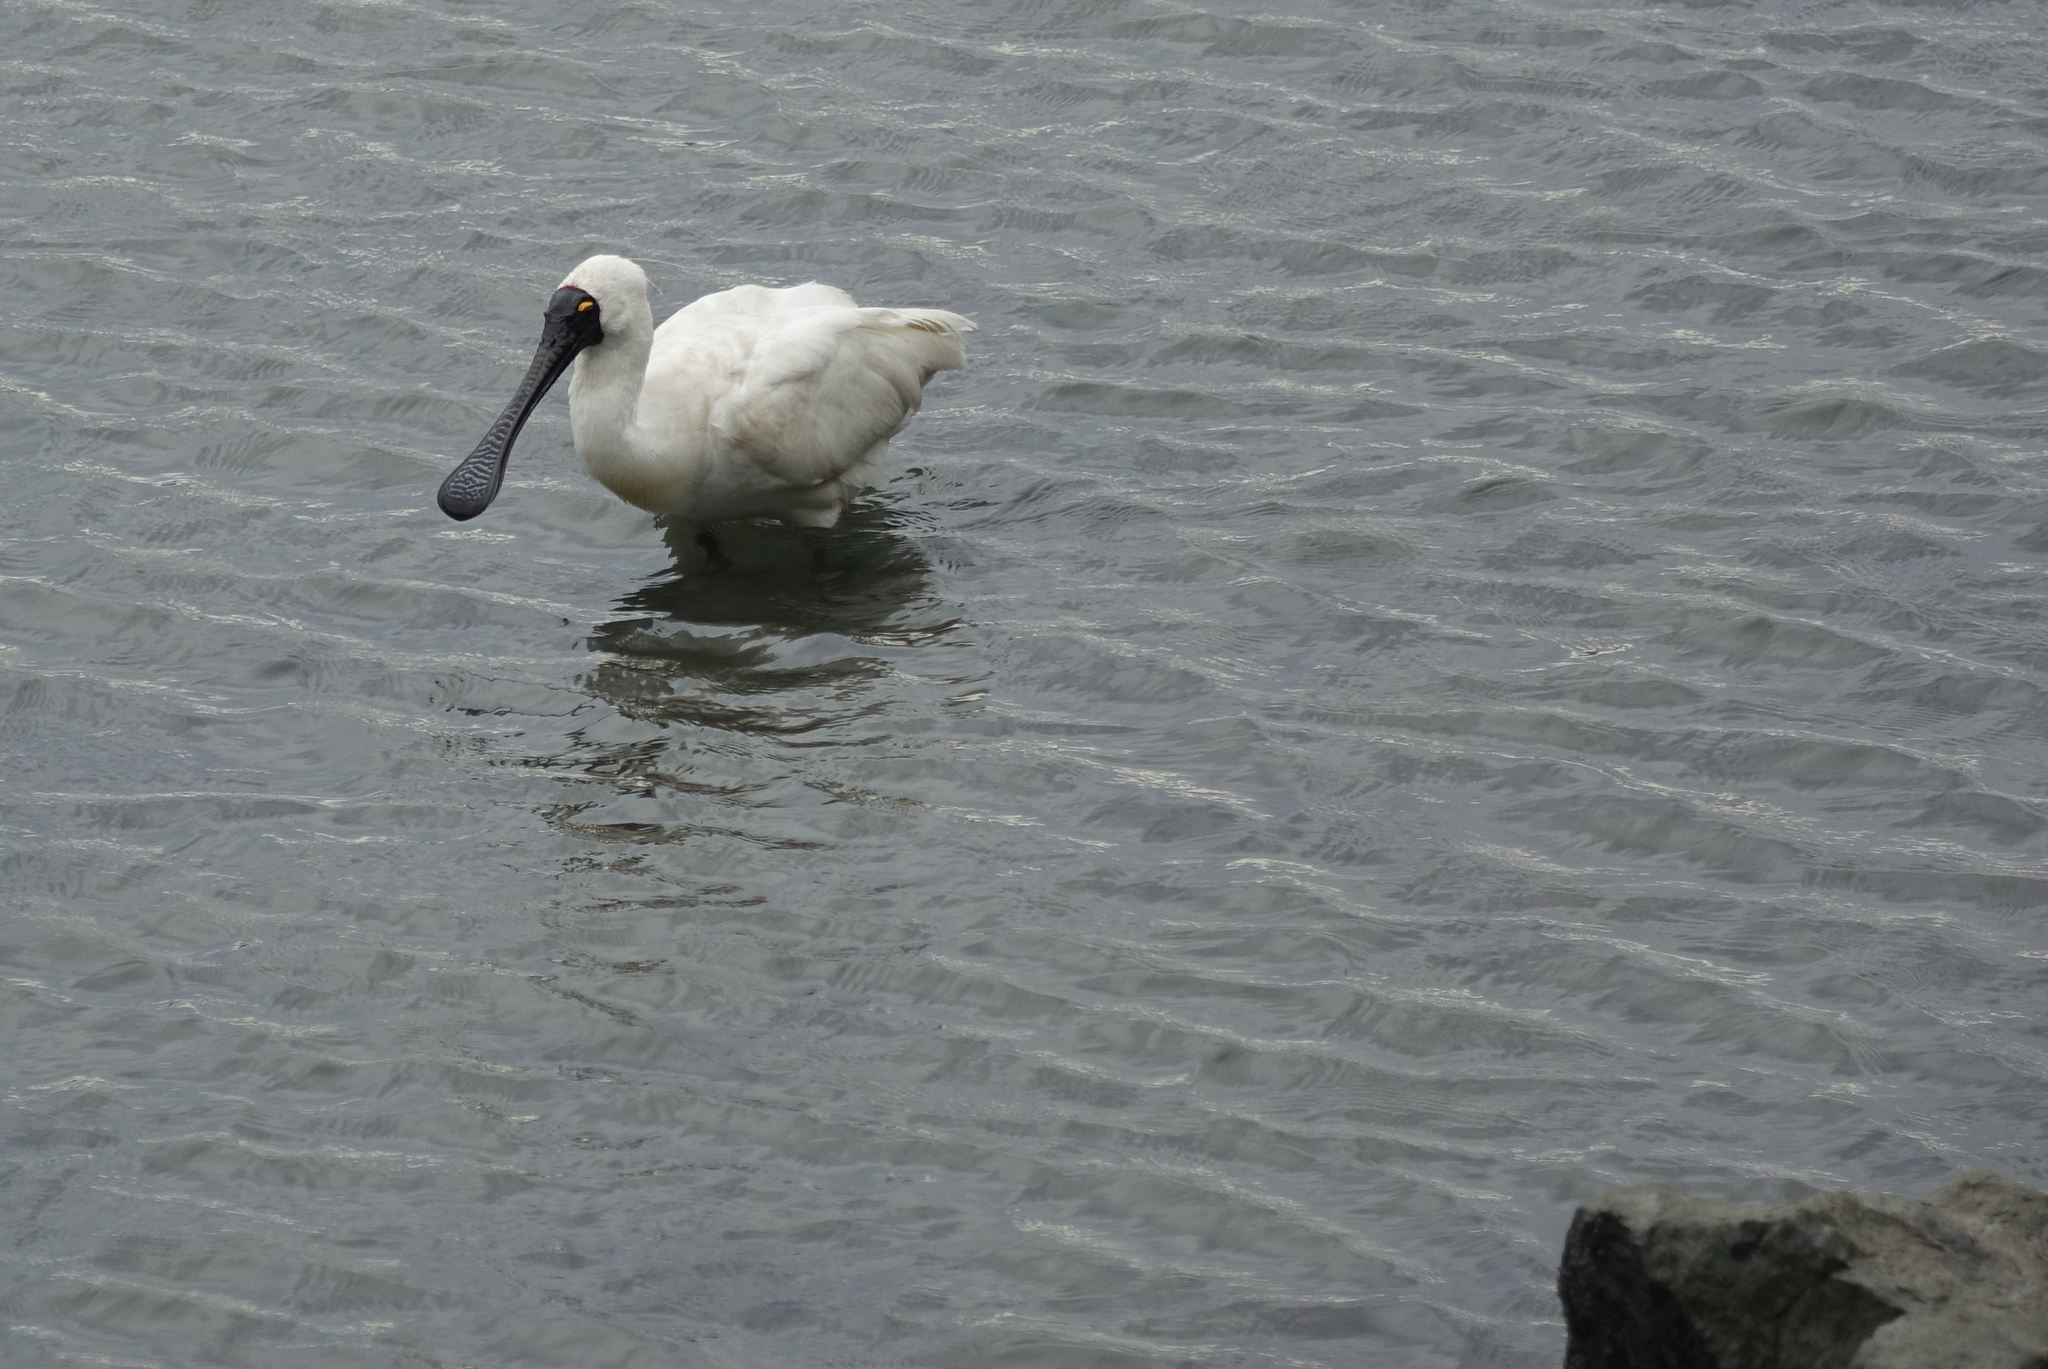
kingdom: Animalia
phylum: Chordata
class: Aves
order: Pelecaniformes
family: Threskiornithidae
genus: Platalea
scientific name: Platalea regia
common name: Royal spoonbill
